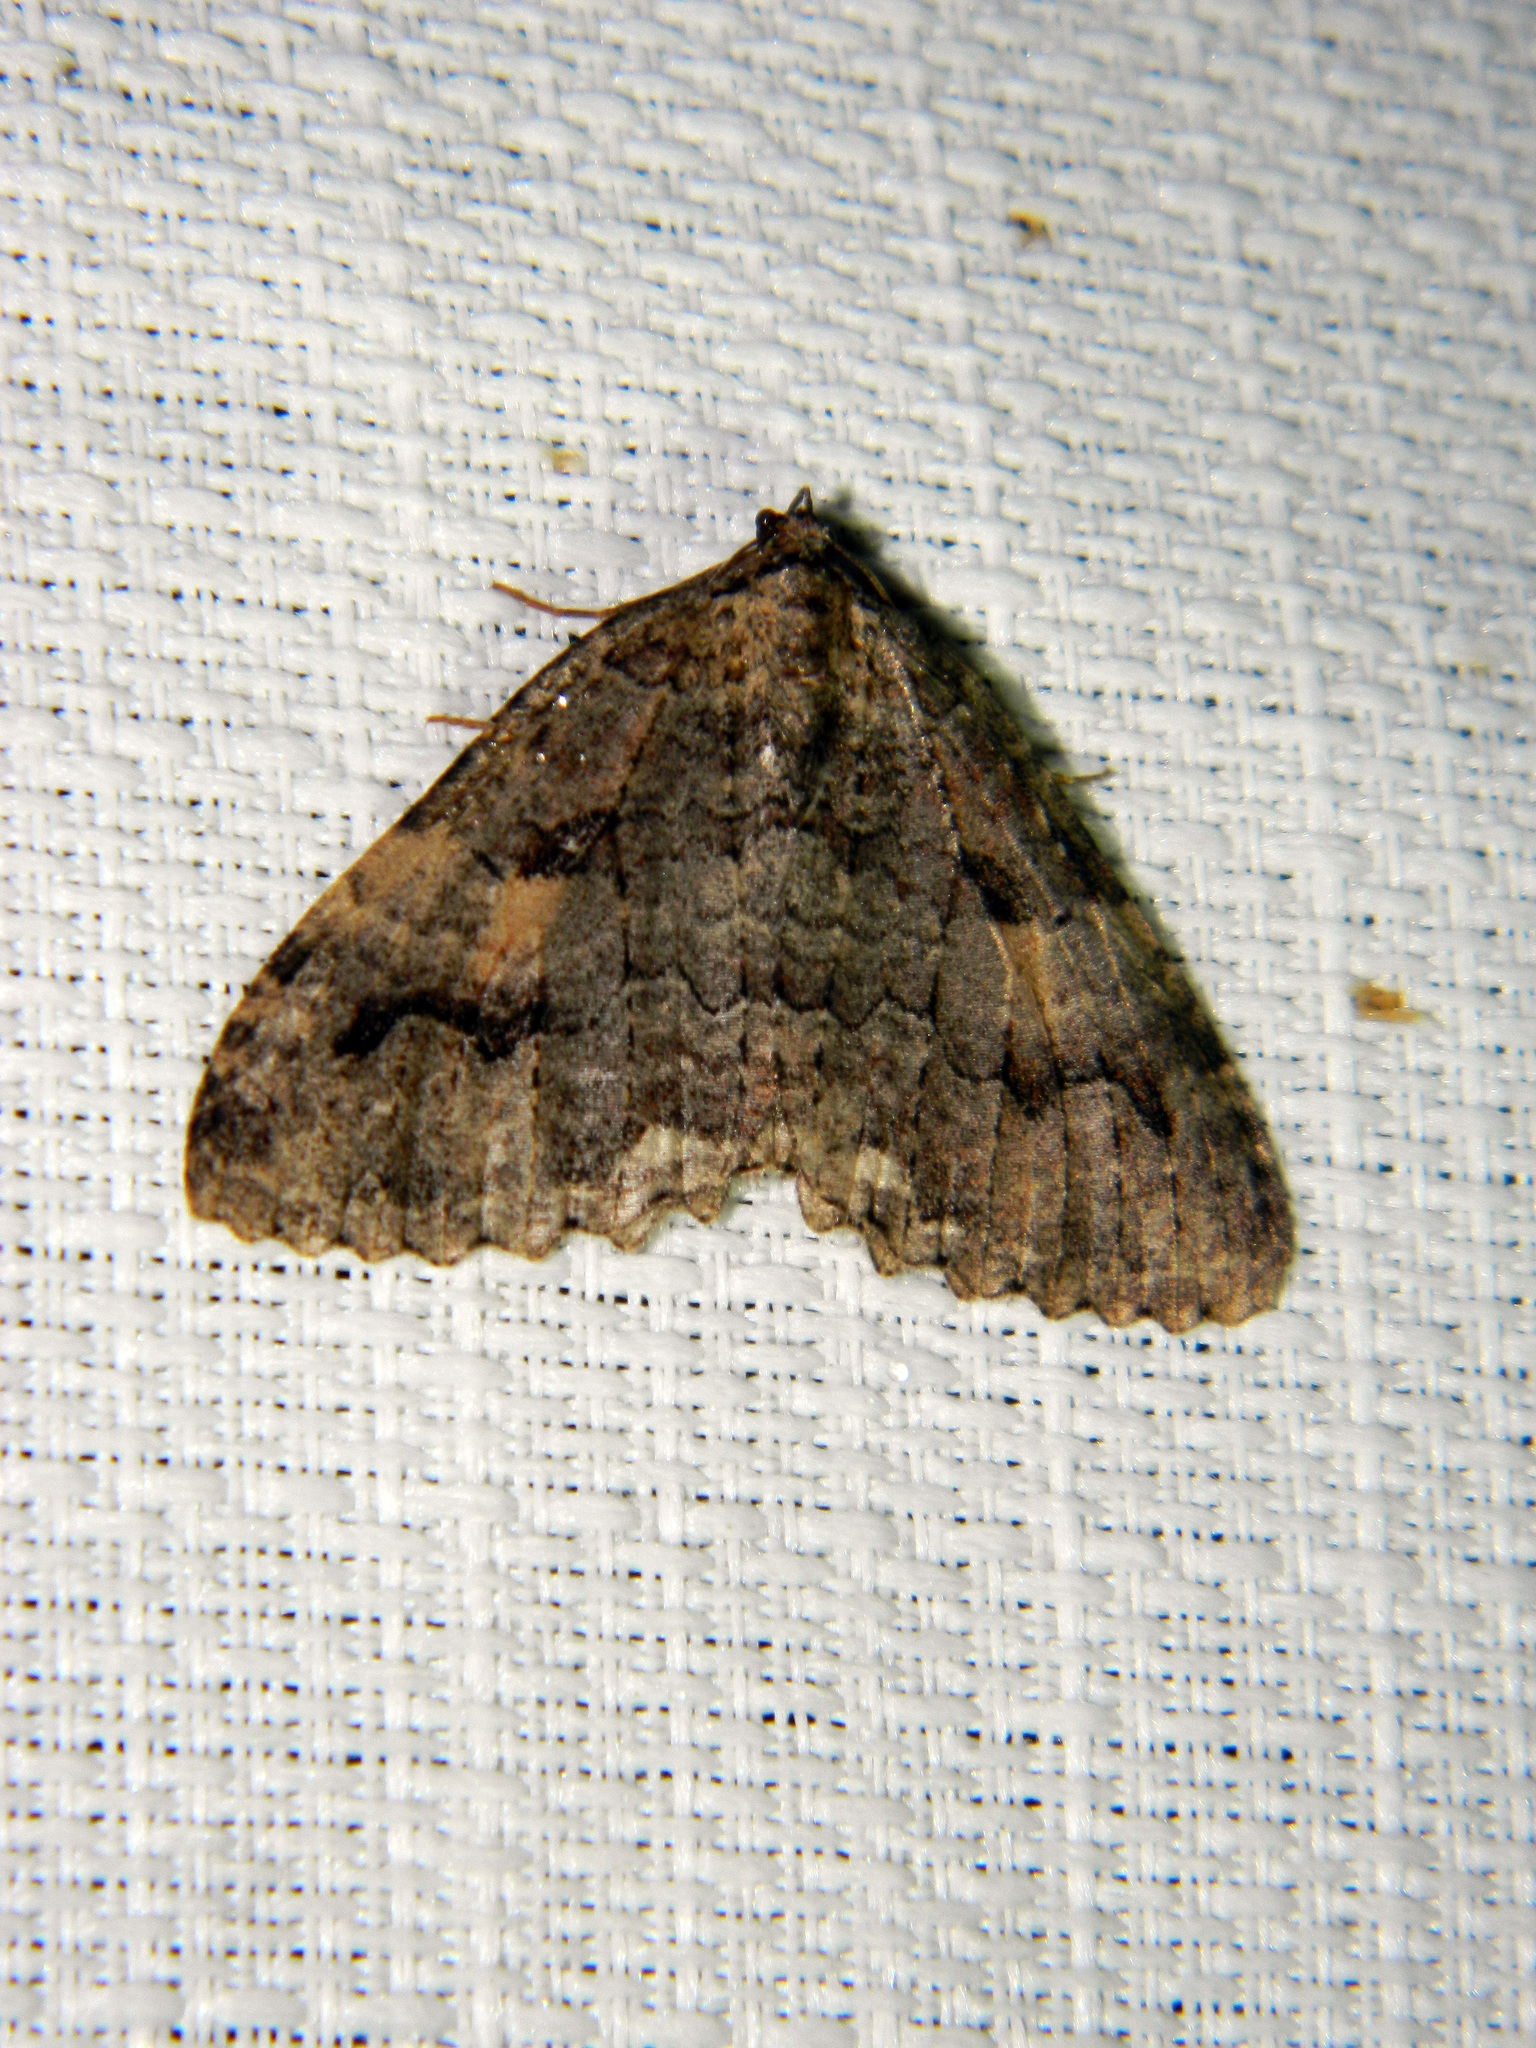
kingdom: Animalia
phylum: Arthropoda
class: Insecta
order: Lepidoptera
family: Geometridae
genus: Triphosa
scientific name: Triphosa haesitata
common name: Tissue moth
